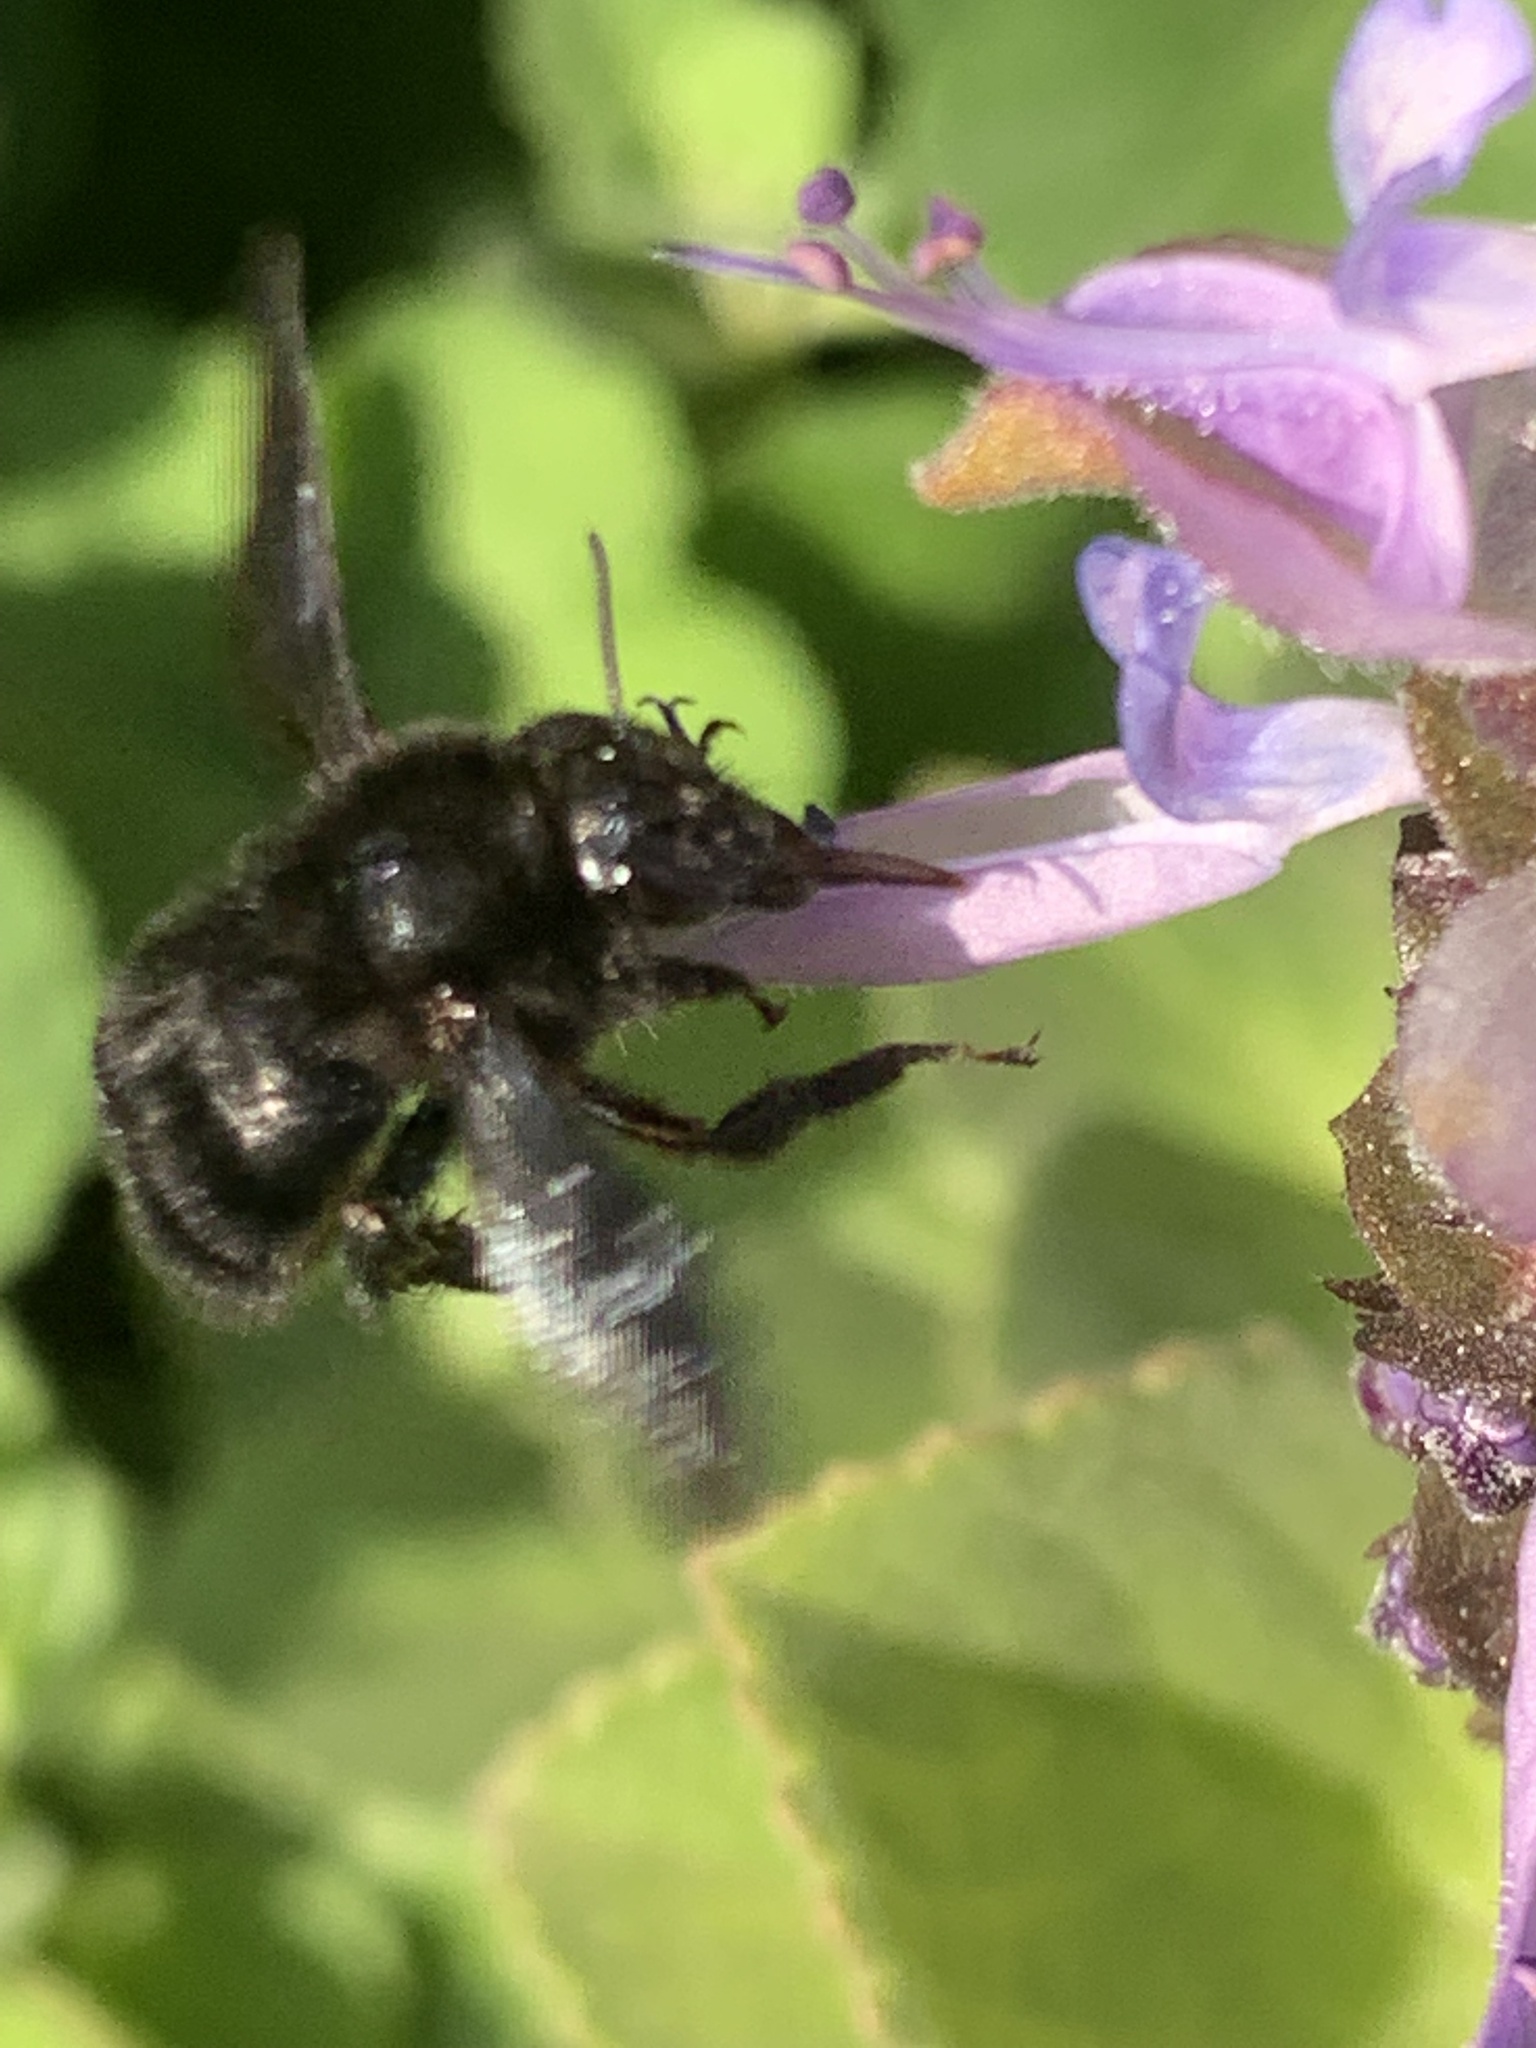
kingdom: Animalia
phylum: Arthropoda
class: Insecta
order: Hymenoptera
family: Apidae
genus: Bombus
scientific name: Bombus pauloensis
